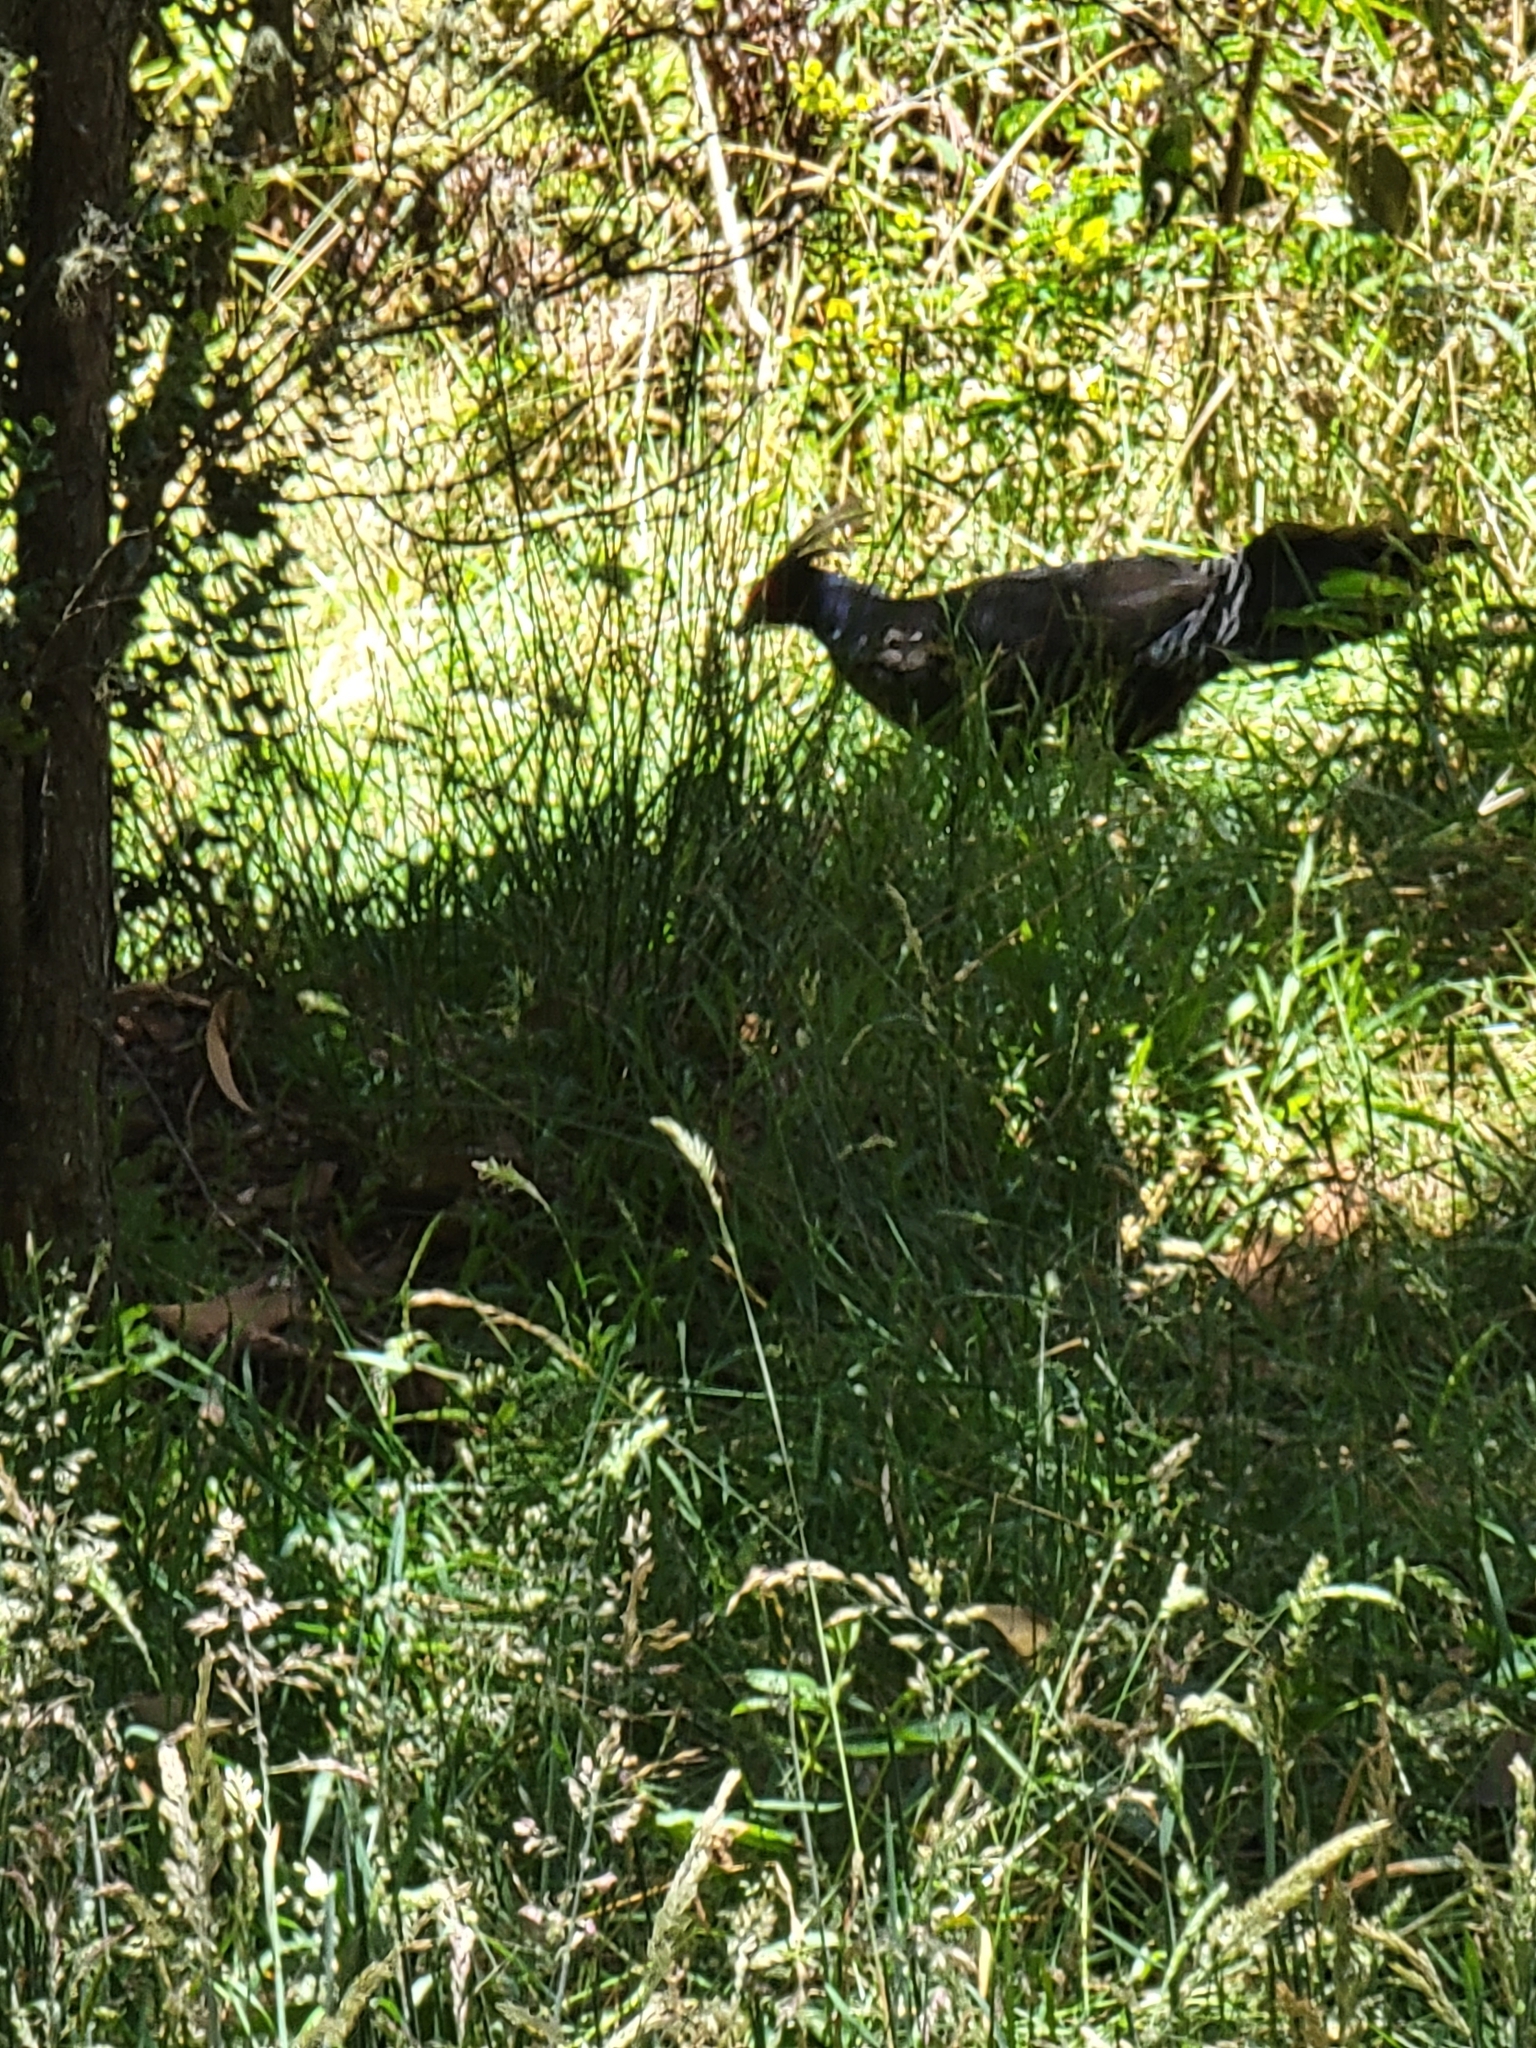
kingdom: Animalia
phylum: Chordata
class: Aves
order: Galliformes
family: Phasianidae
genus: Lophura
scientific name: Lophura leucomelanos
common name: Kalij pheasant
